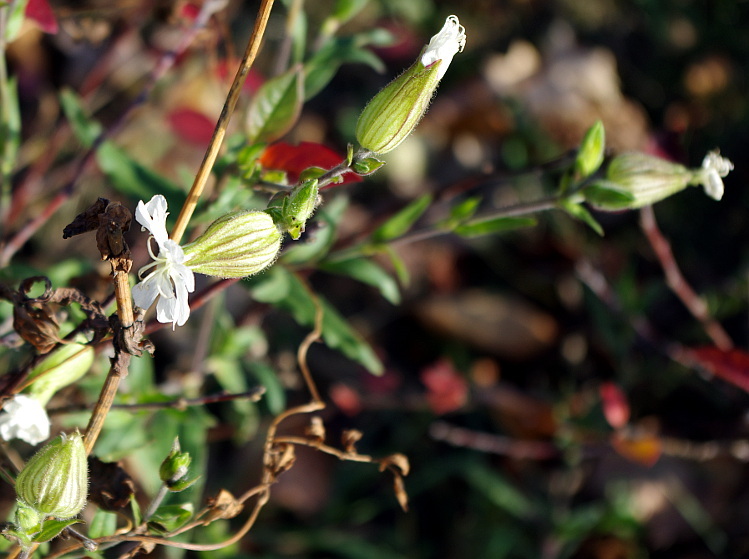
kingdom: Plantae
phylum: Tracheophyta
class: Magnoliopsida
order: Caryophyllales
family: Caryophyllaceae
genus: Silene
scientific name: Silene latifolia
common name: White campion
